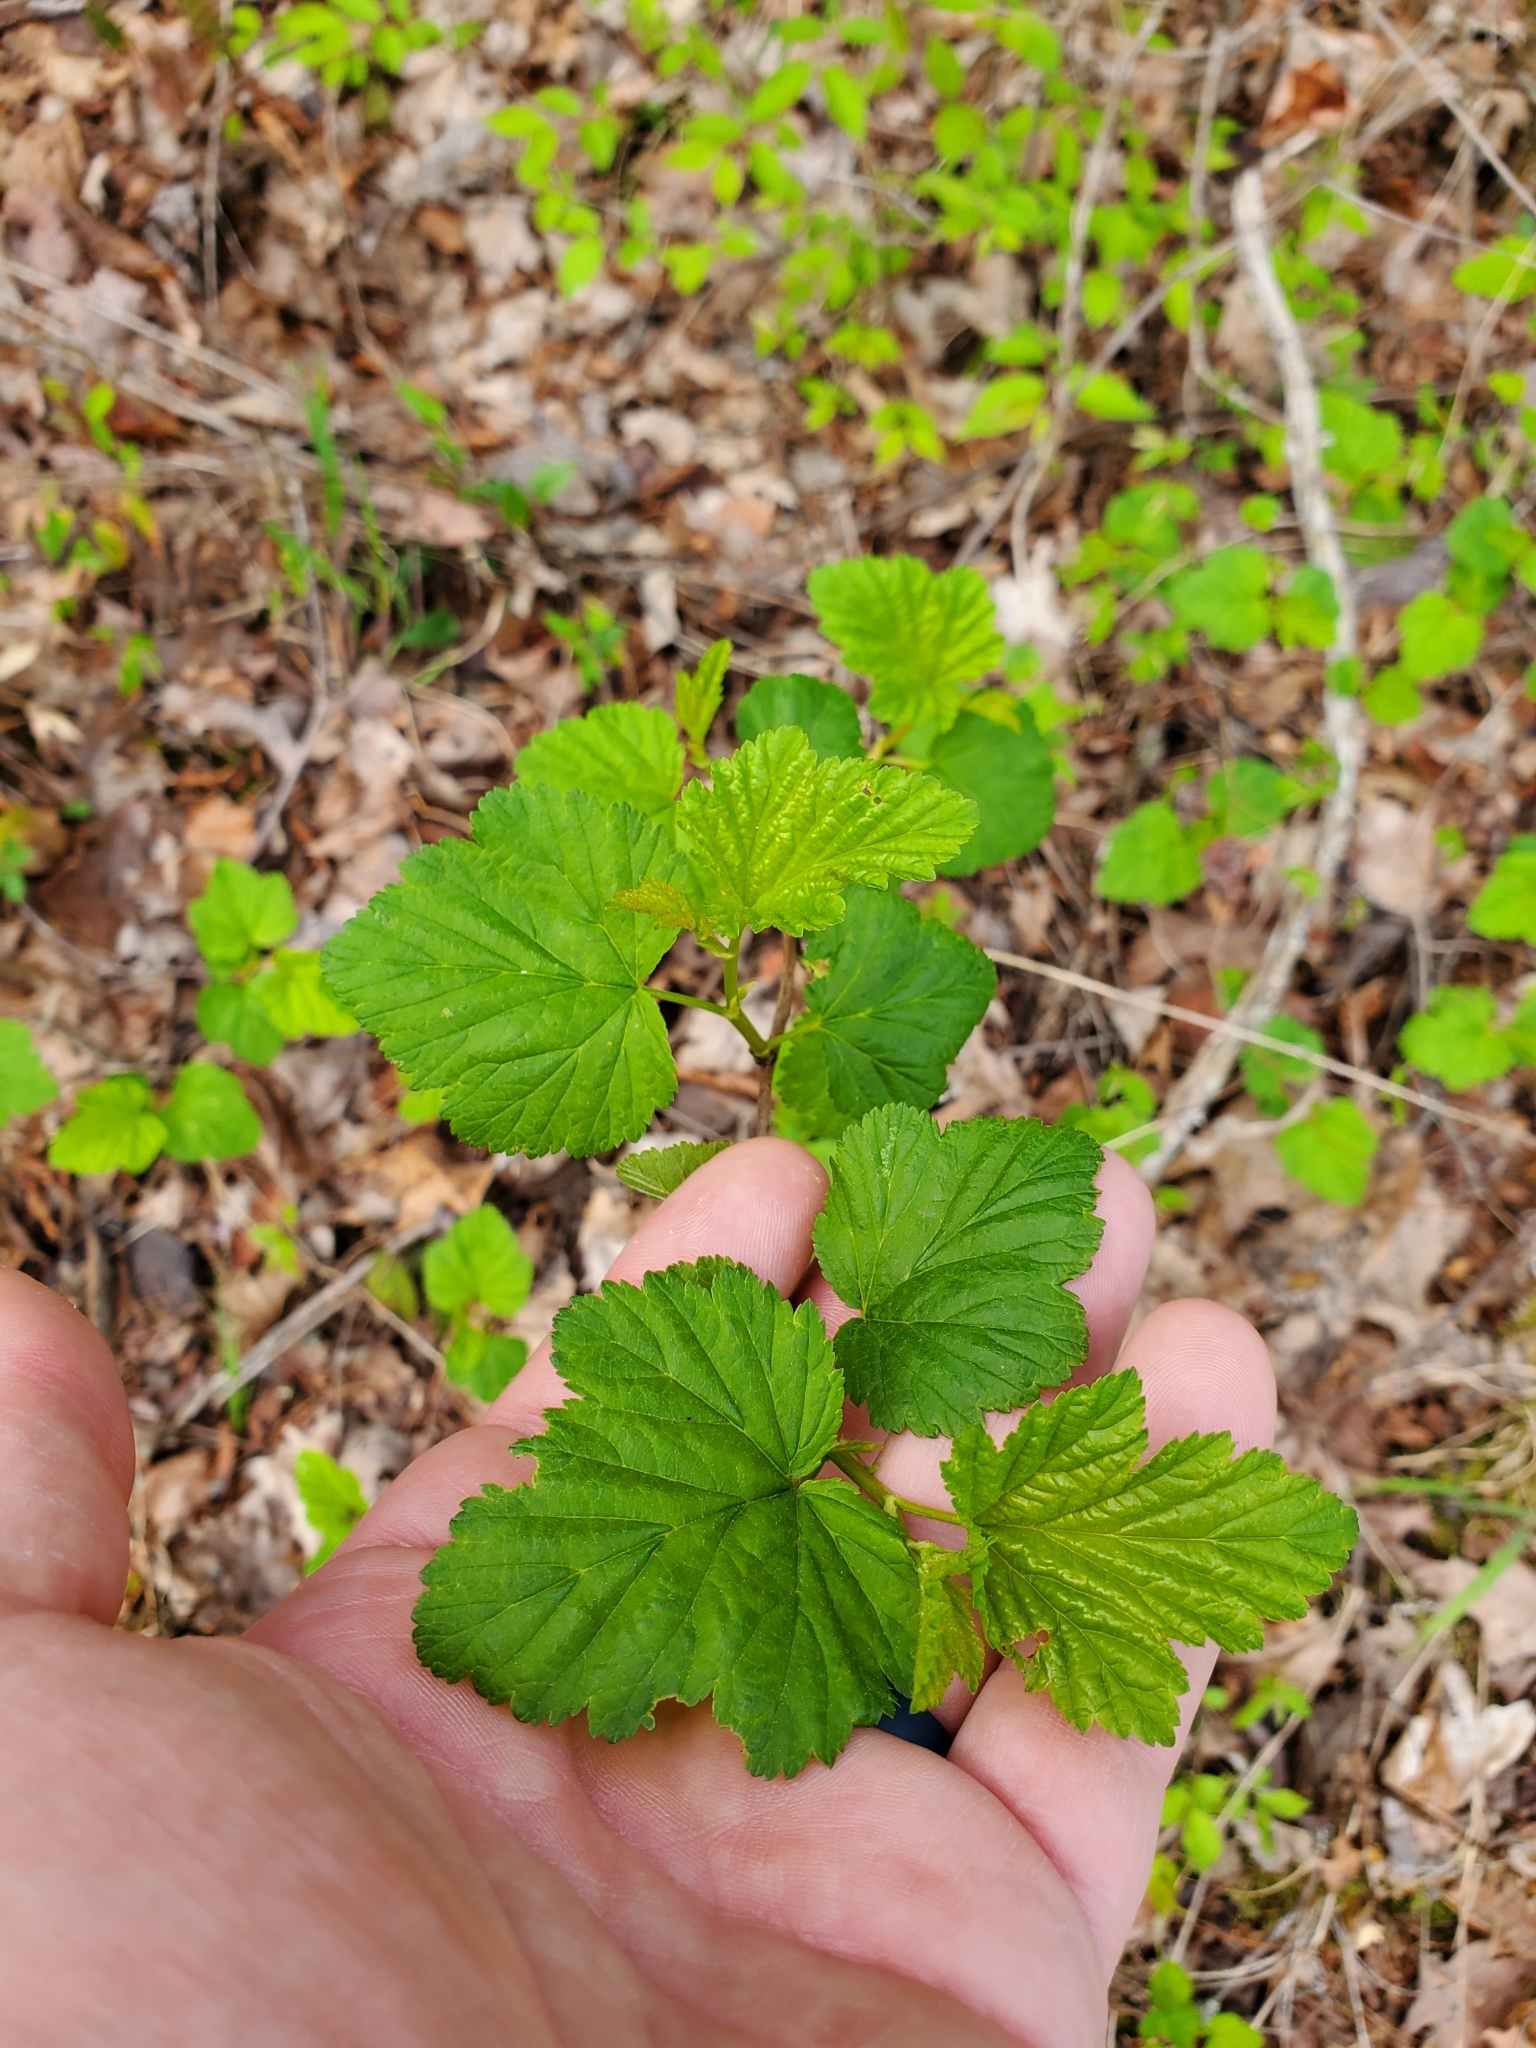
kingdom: Plantae
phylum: Tracheophyta
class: Magnoliopsida
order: Rosales
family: Rosaceae
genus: Physocarpus
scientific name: Physocarpus opulifolius
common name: Ninebark
